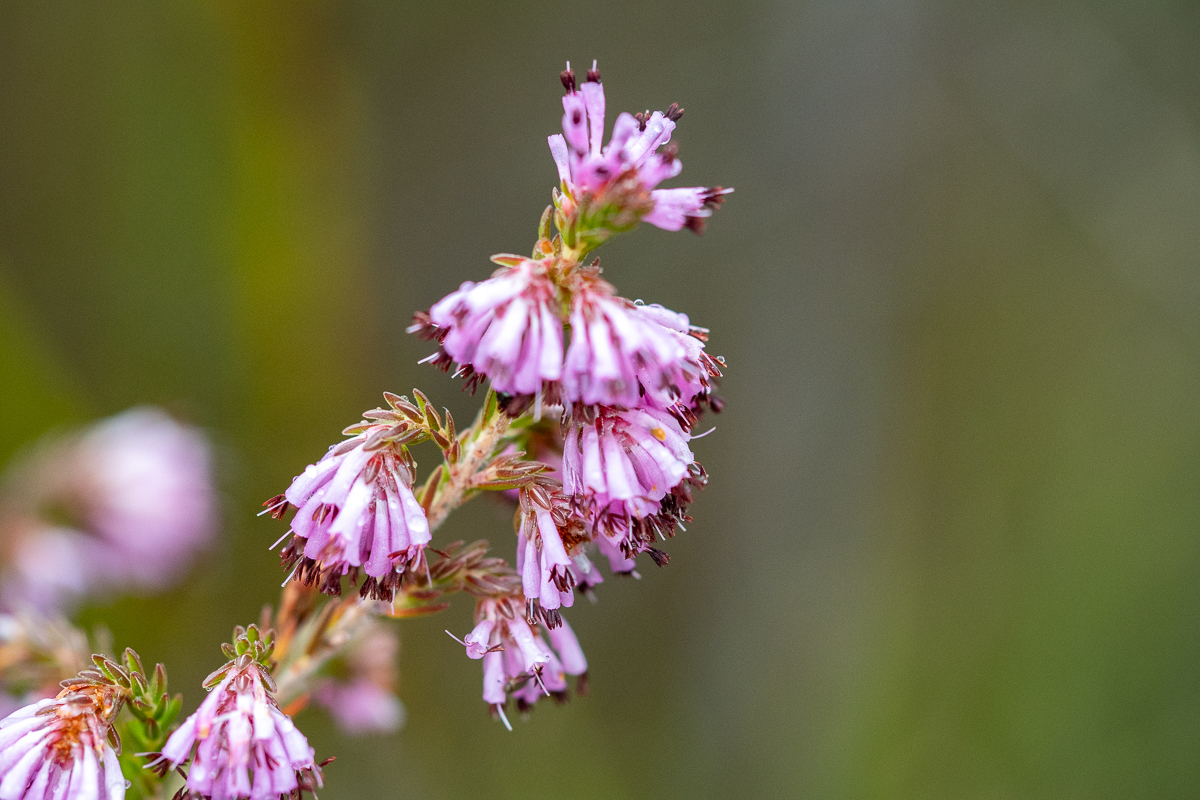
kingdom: Plantae
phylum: Tracheophyta
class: Magnoliopsida
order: Ericales
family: Ericaceae
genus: Erica
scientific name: Erica labialis
